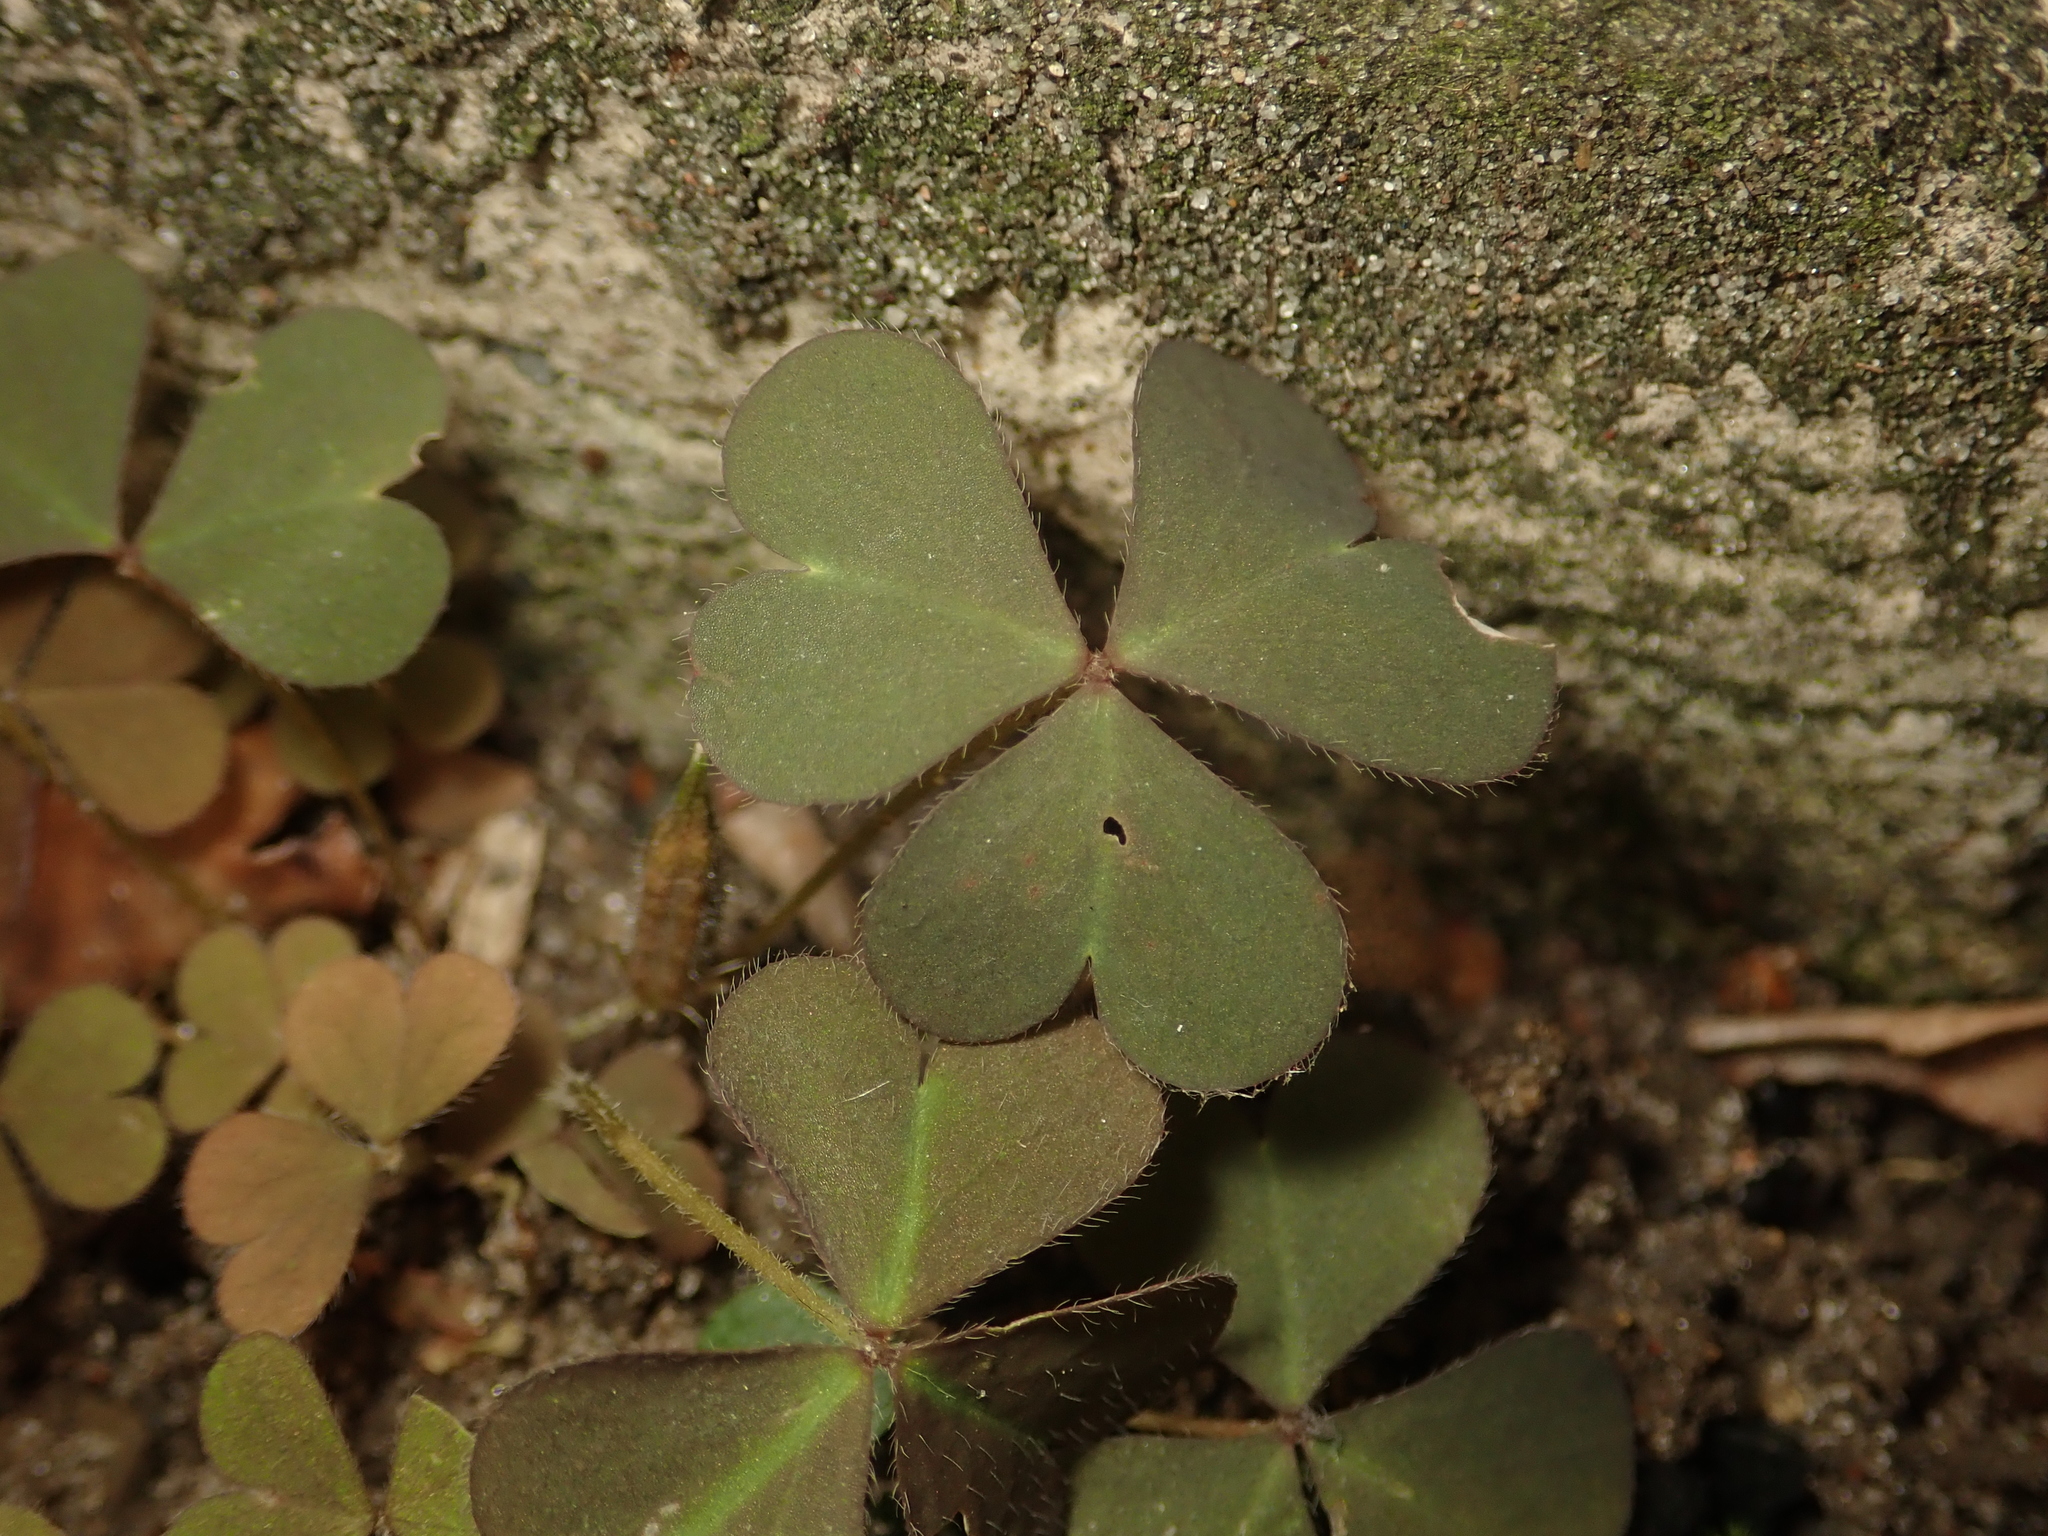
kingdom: Plantae
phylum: Tracheophyta
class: Magnoliopsida
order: Oxalidales
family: Oxalidaceae
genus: Oxalis
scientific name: Oxalis corniculata
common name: Procumbent yellow-sorrel
